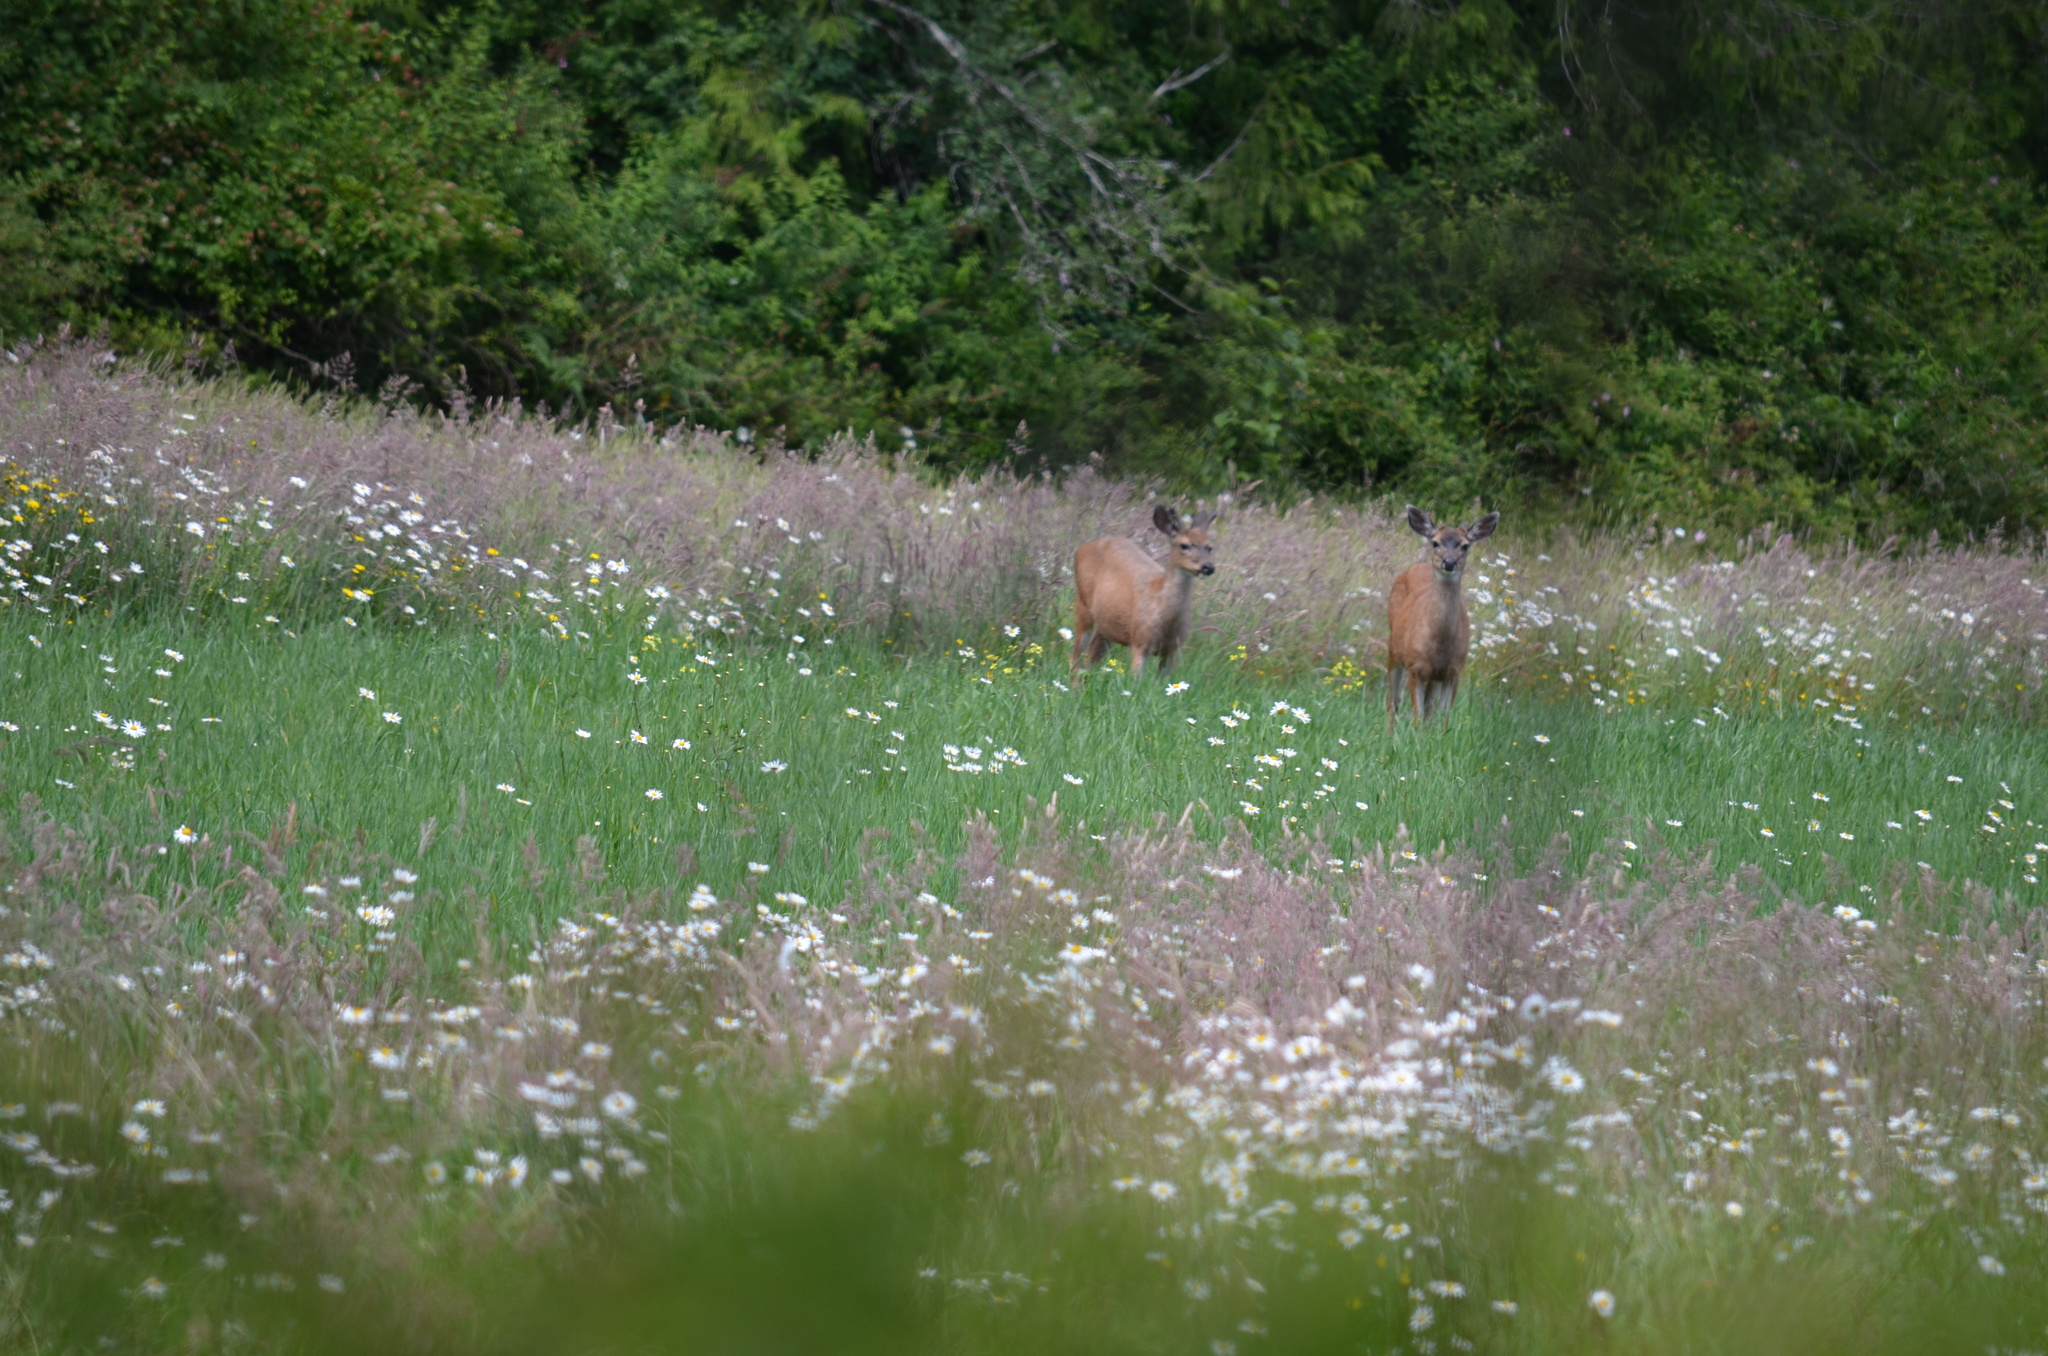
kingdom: Animalia
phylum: Chordata
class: Mammalia
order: Artiodactyla
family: Cervidae
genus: Odocoileus
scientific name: Odocoileus hemionus
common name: Mule deer
